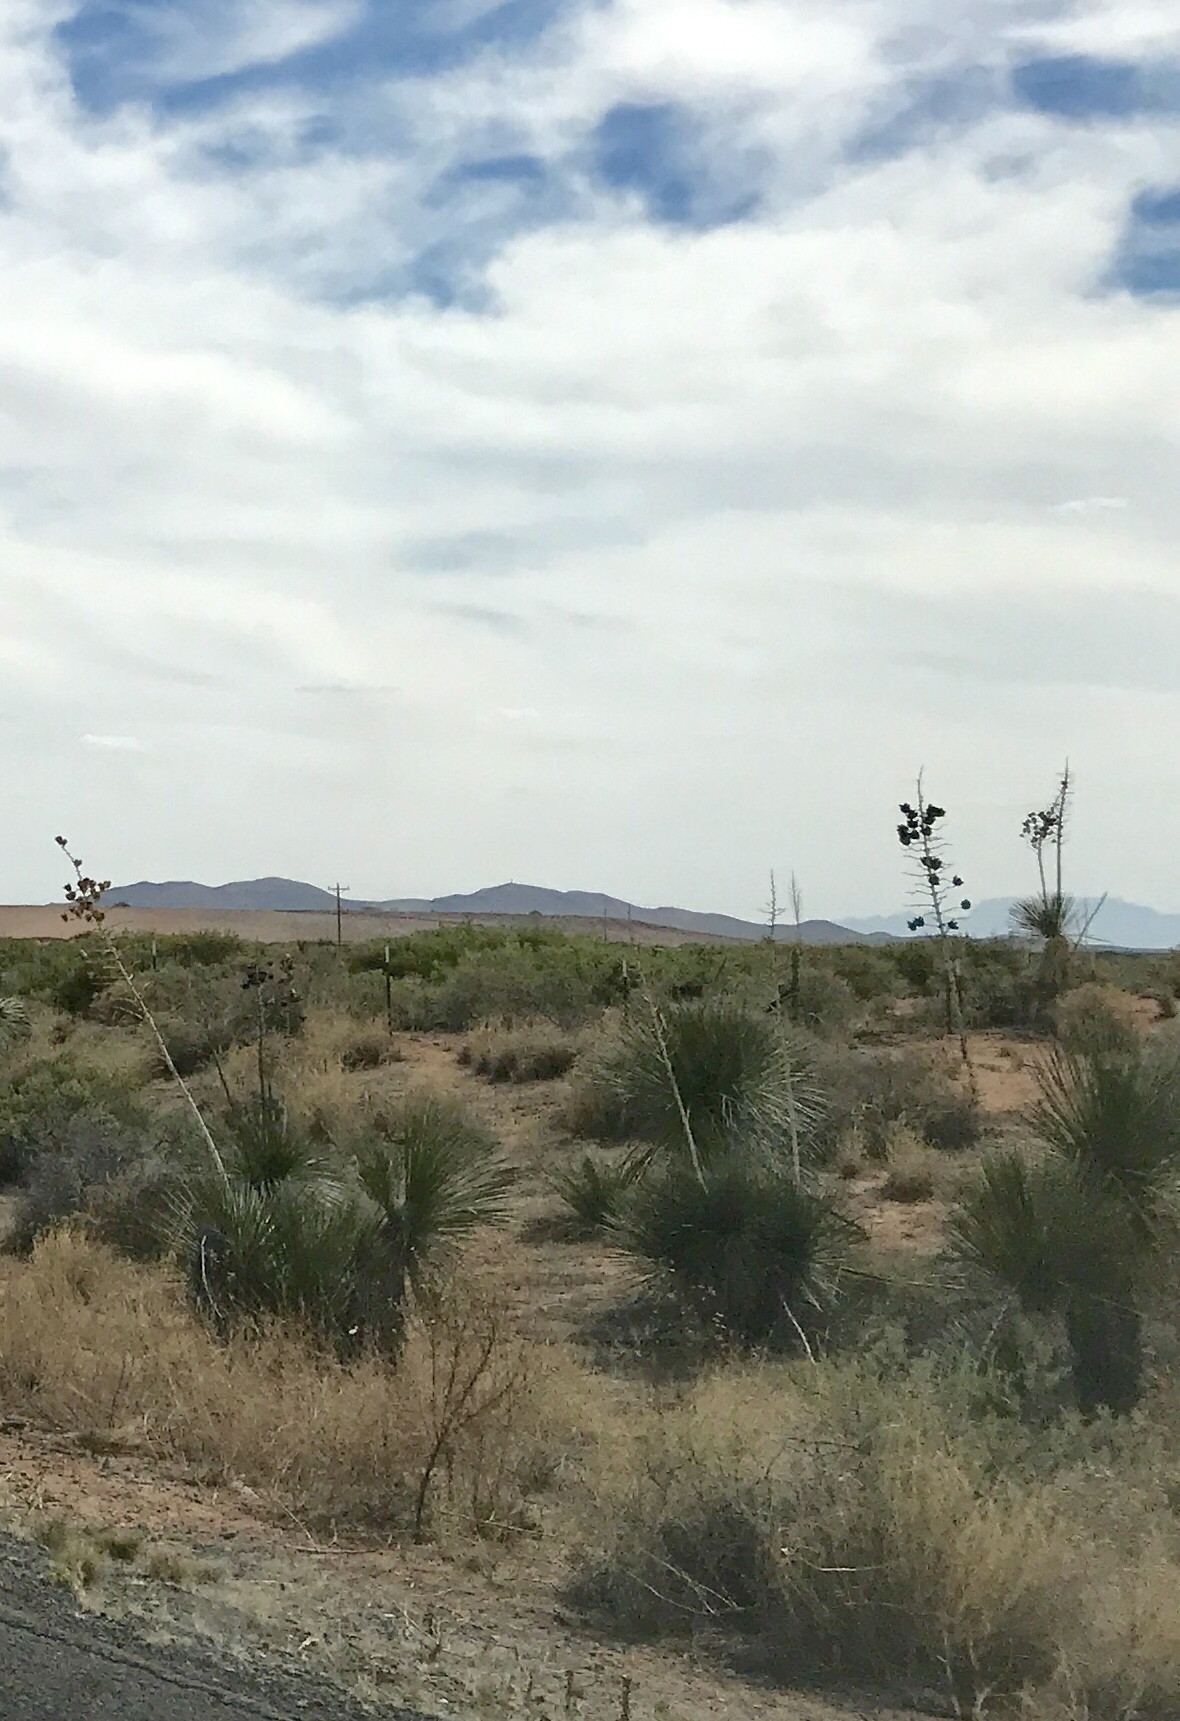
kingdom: Plantae
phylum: Tracheophyta
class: Liliopsida
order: Asparagales
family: Asparagaceae
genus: Yucca
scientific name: Yucca elata
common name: Palmella
